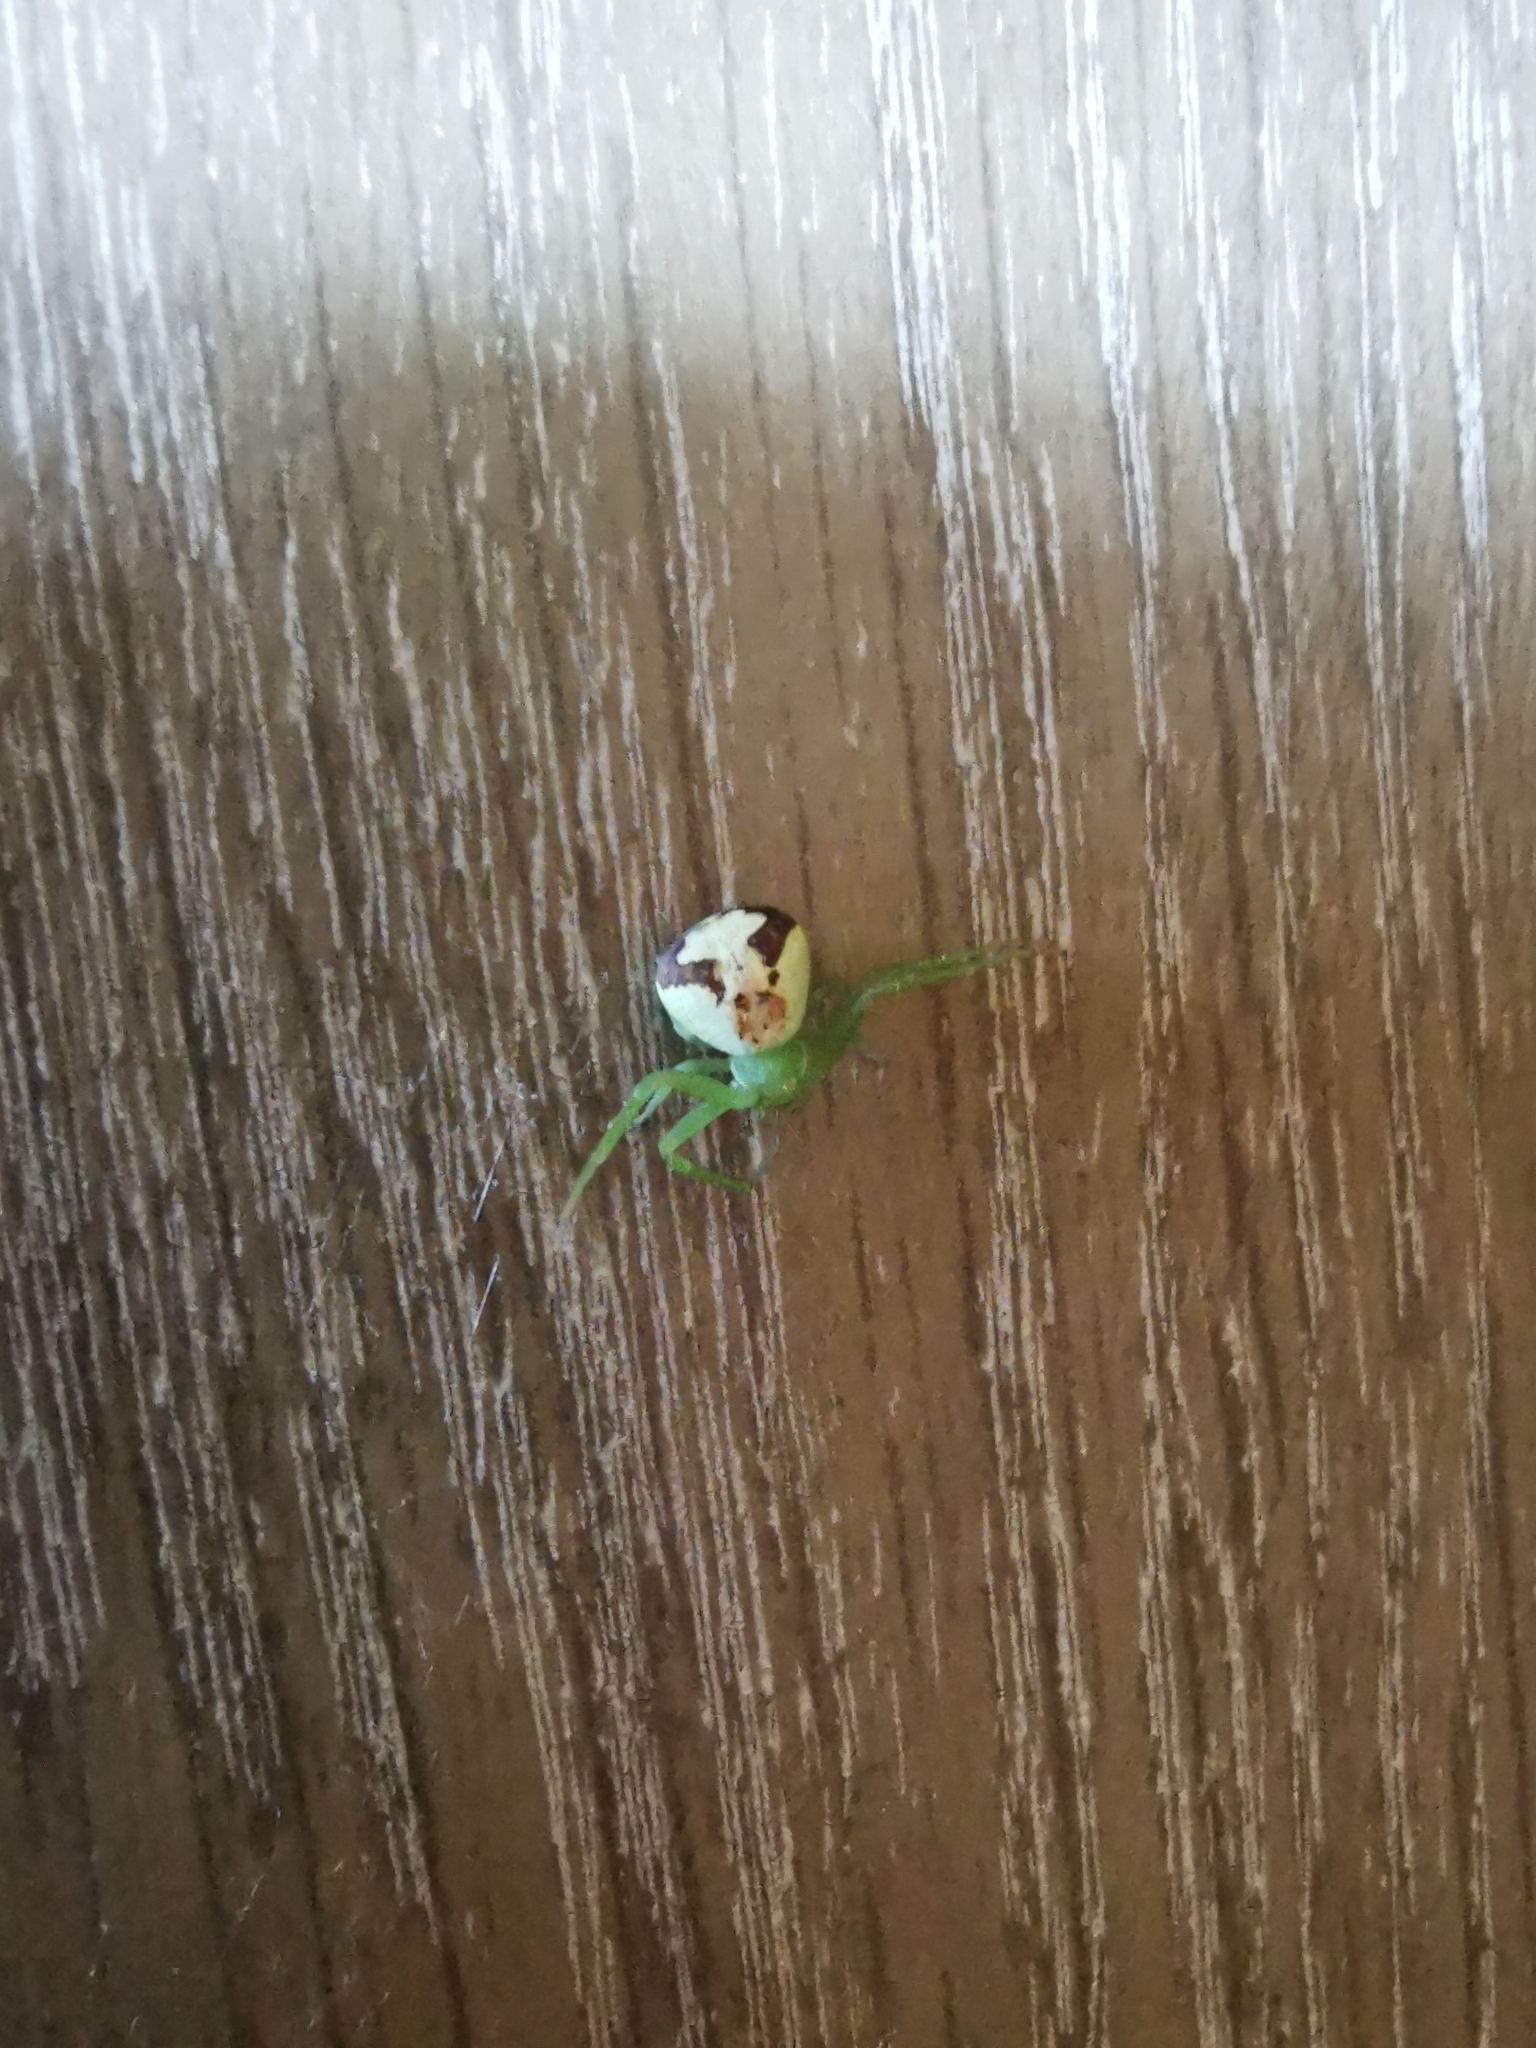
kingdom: Animalia
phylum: Arthropoda
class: Arachnida
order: Araneae
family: Thomisidae
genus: Ebrechtella
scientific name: Ebrechtella tricuspidata
